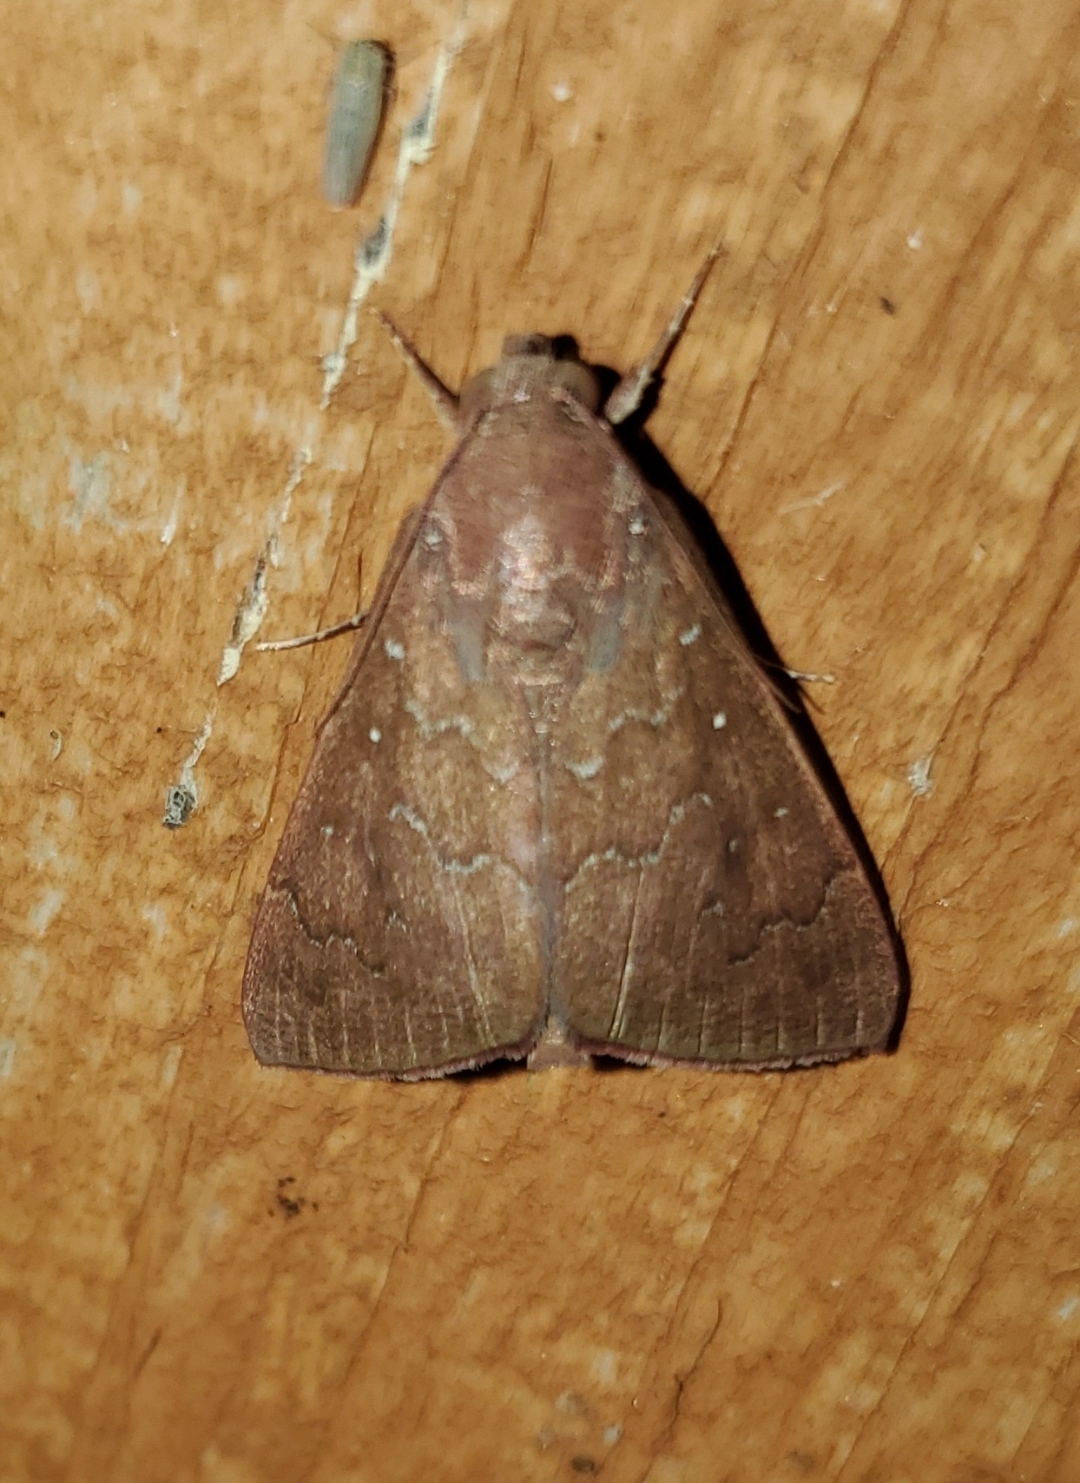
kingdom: Animalia
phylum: Arthropoda
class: Insecta
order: Lepidoptera
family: Erebidae
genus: Anomis
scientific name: Anomis illita
